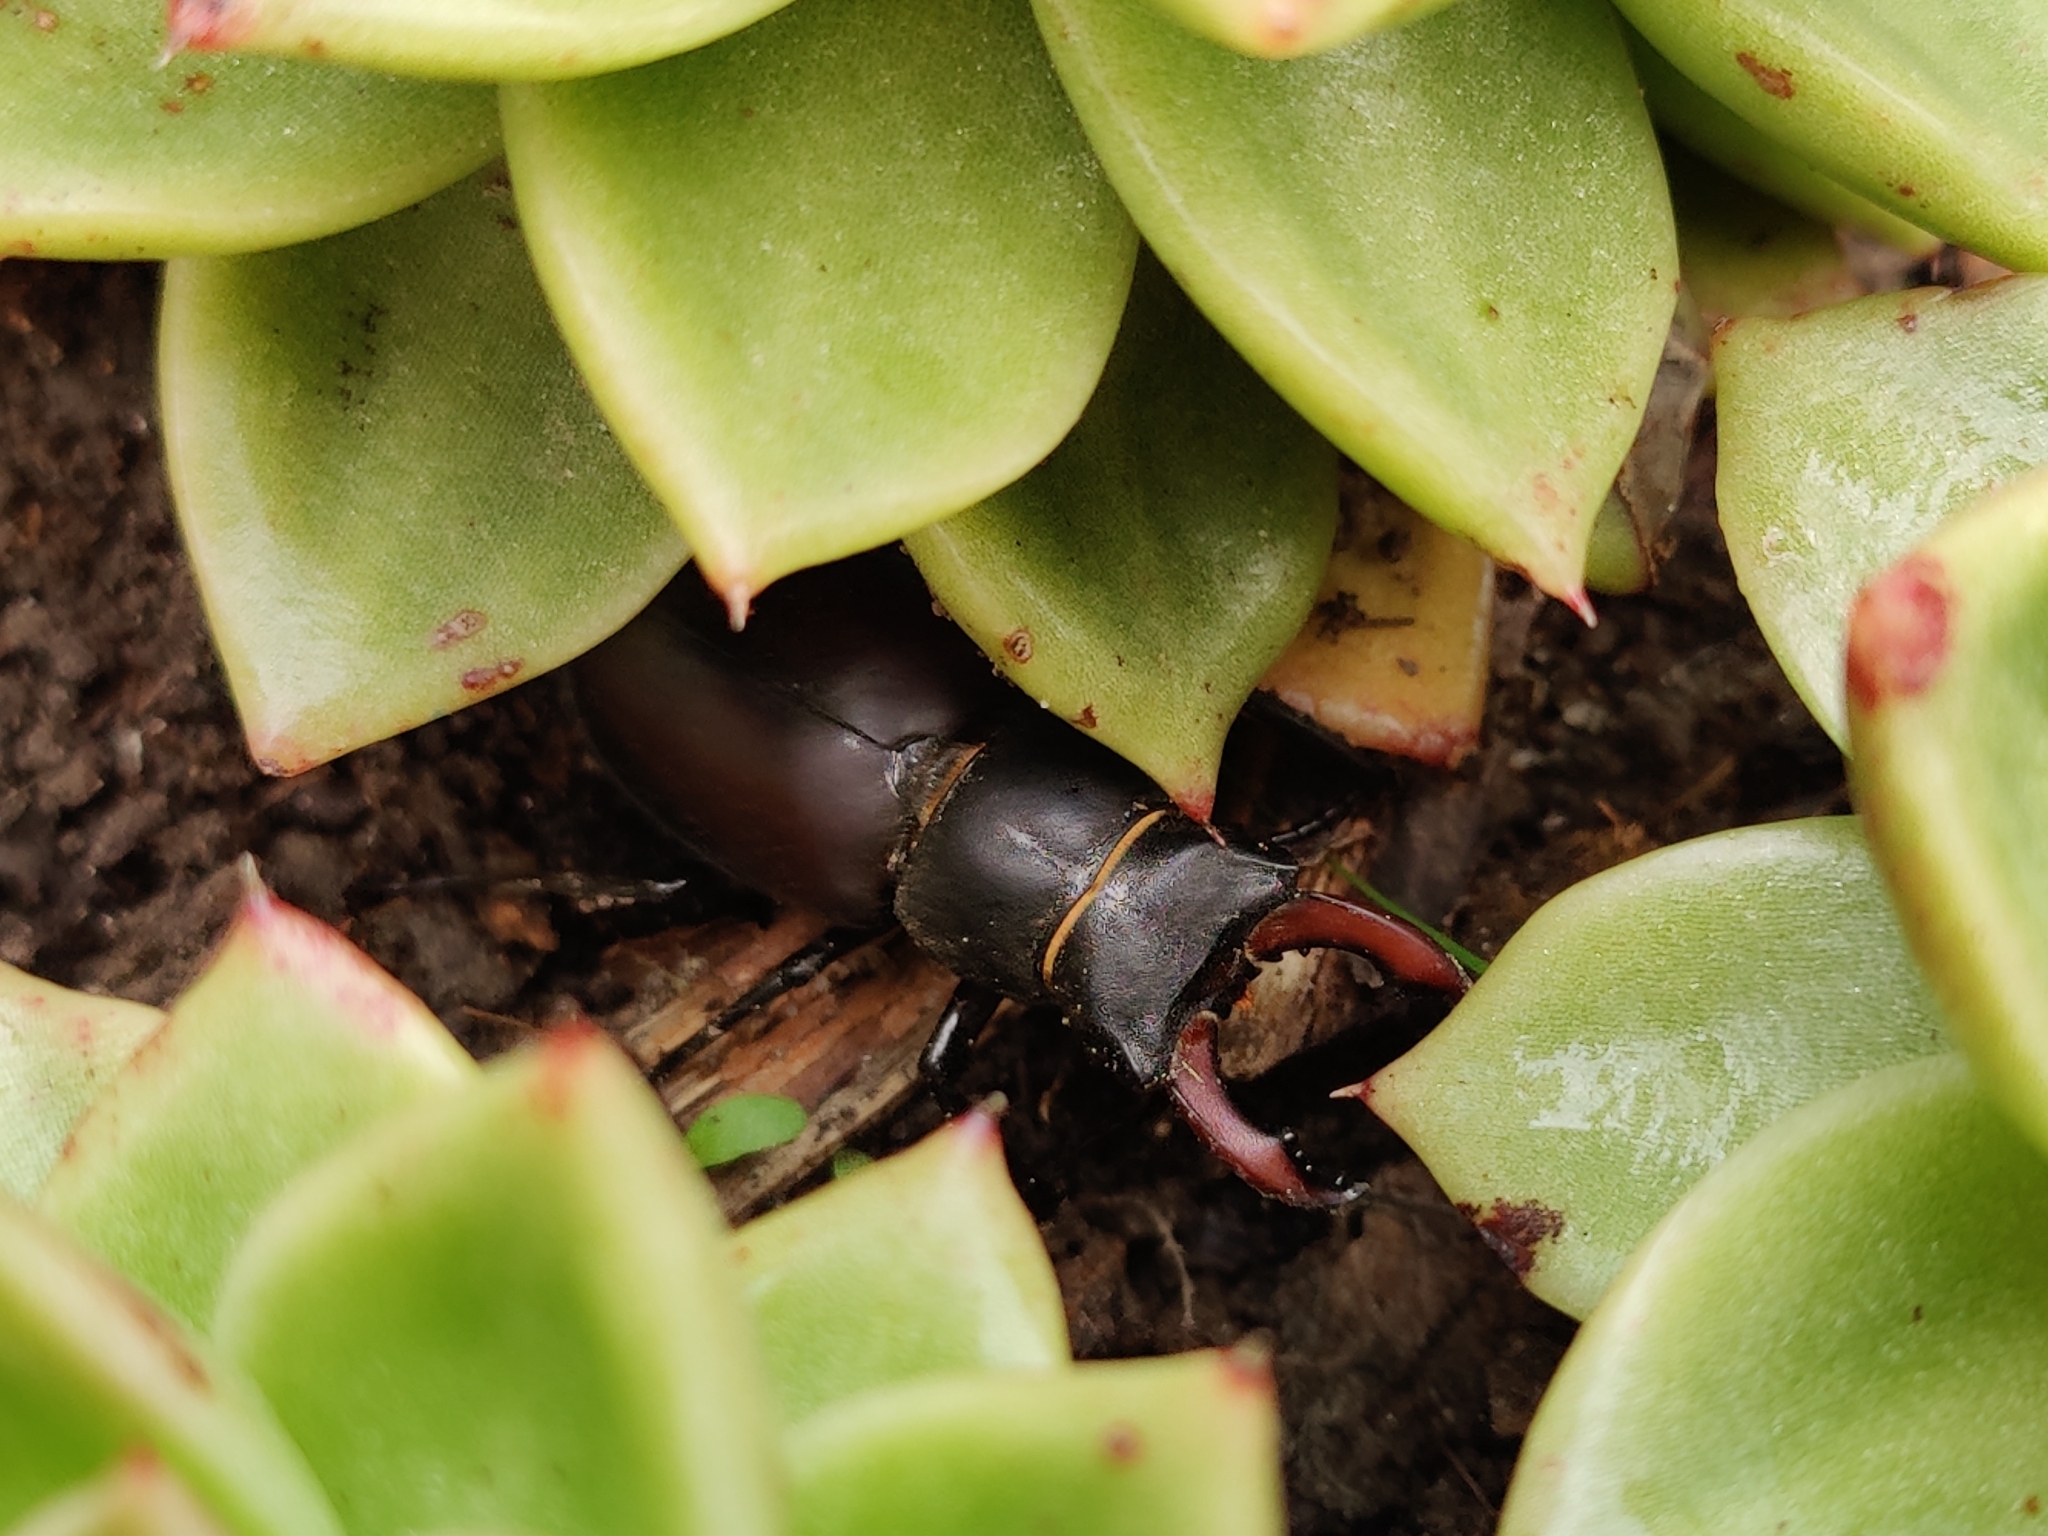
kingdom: Animalia
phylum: Arthropoda
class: Insecta
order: Coleoptera
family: Lucanidae
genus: Lucanus
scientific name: Lucanus cervus
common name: Stag beetle
